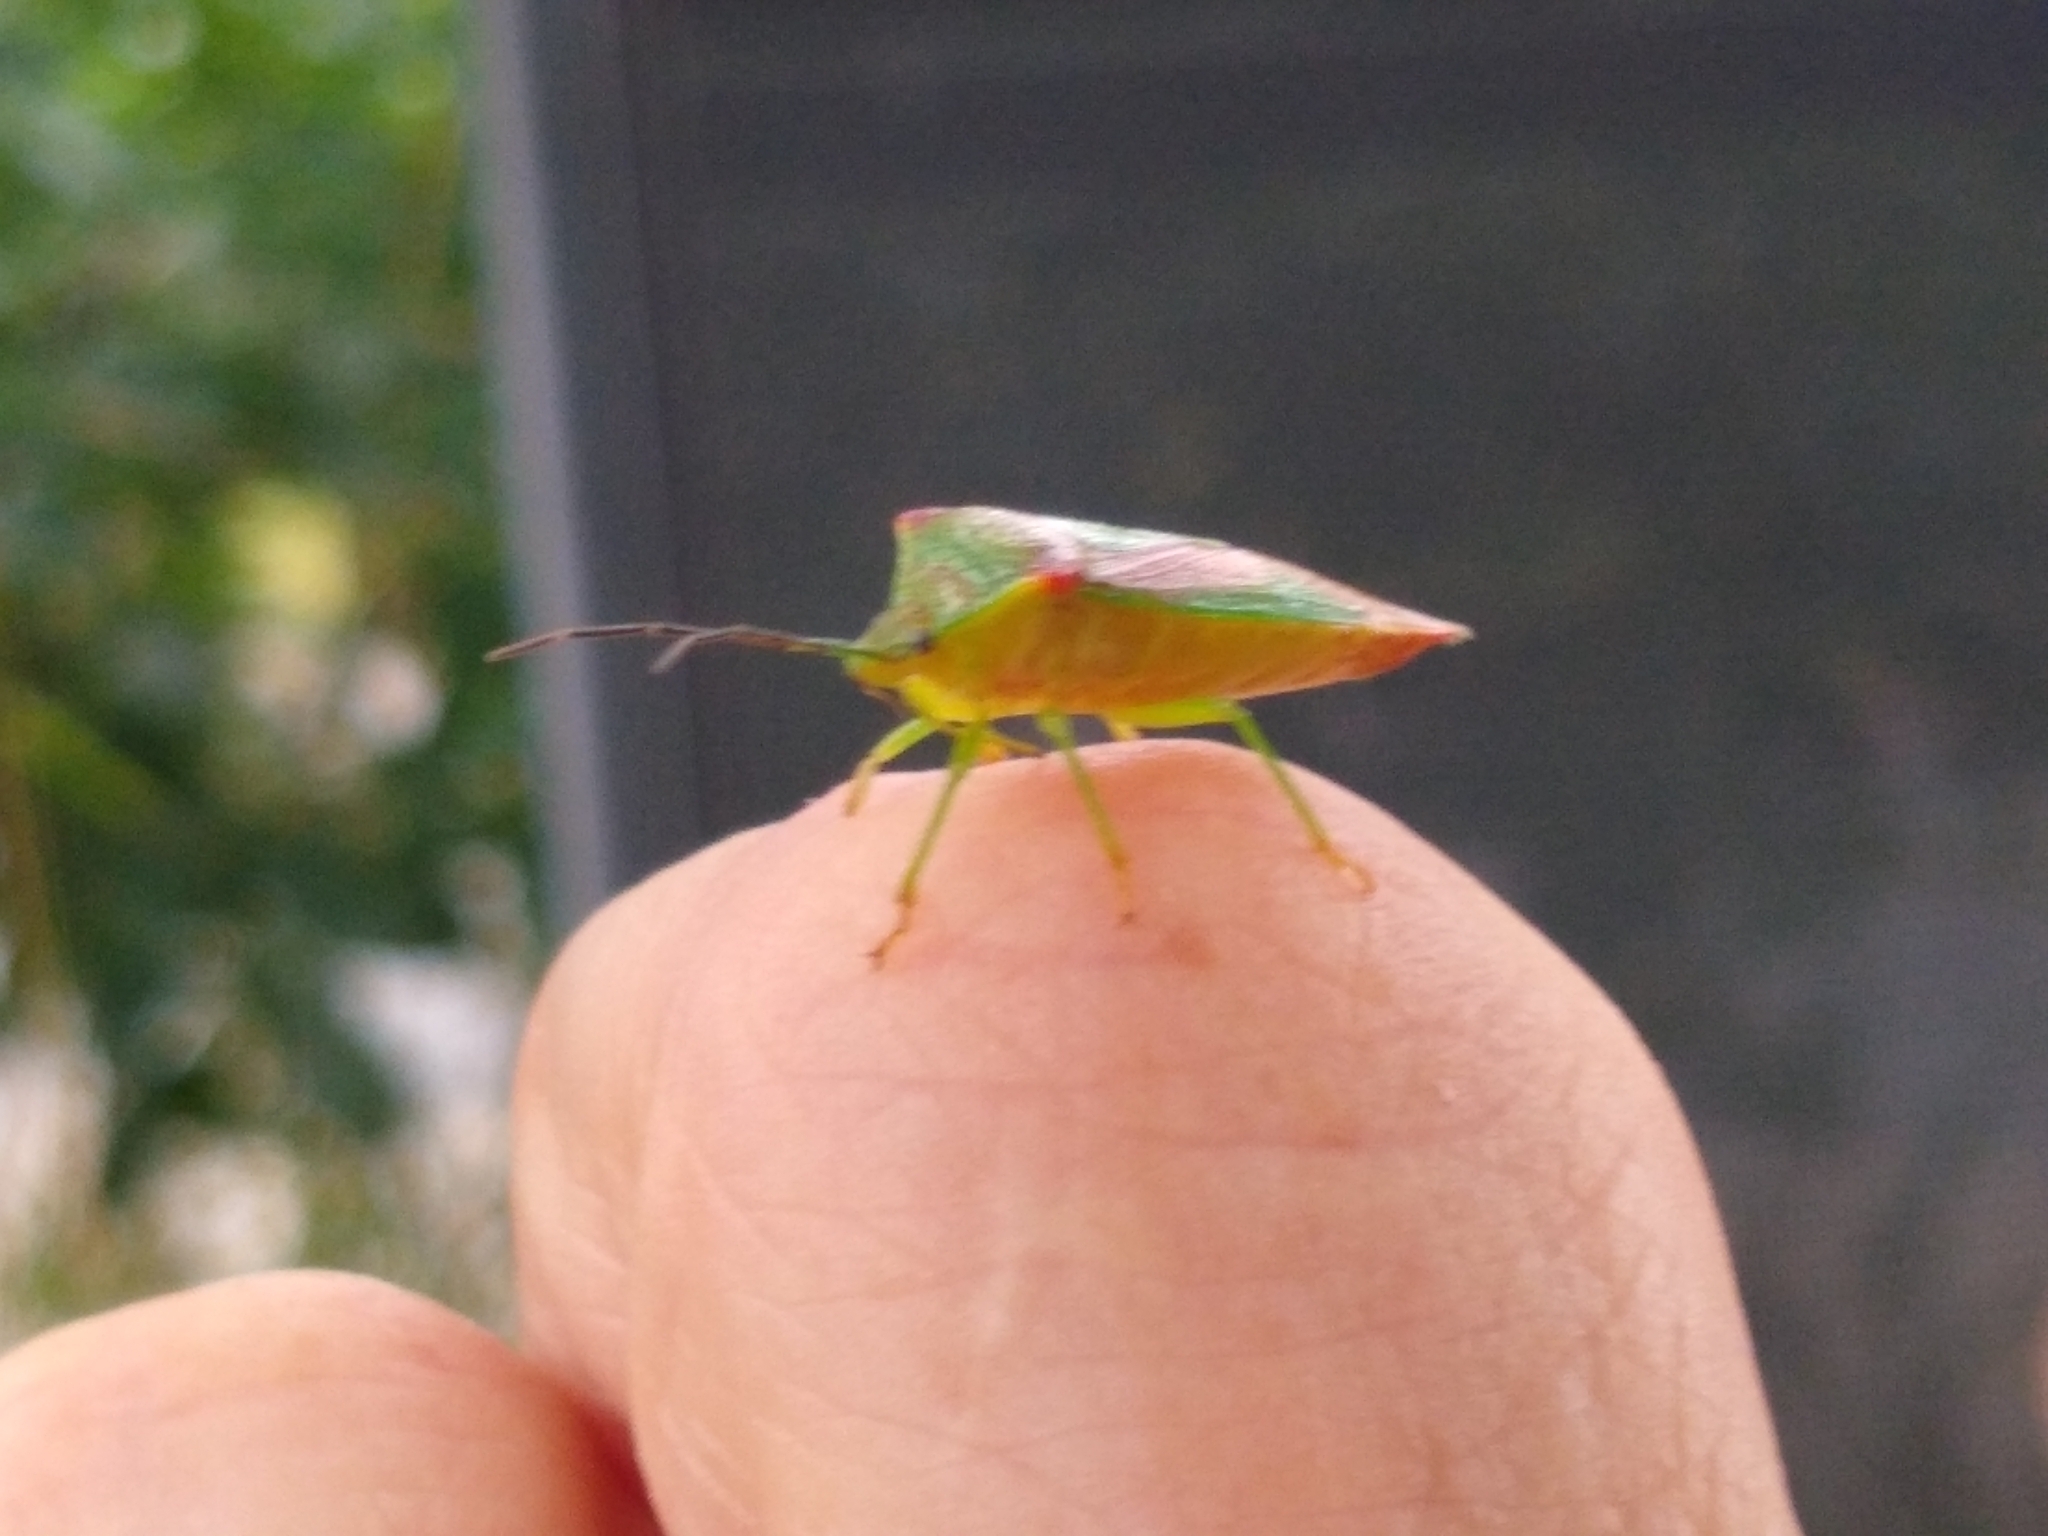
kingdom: Animalia
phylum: Arthropoda
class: Insecta
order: Hemiptera
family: Acanthosomatidae
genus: Acanthosoma
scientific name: Acanthosoma haemorrhoidale
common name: Hawthorn shieldbug
